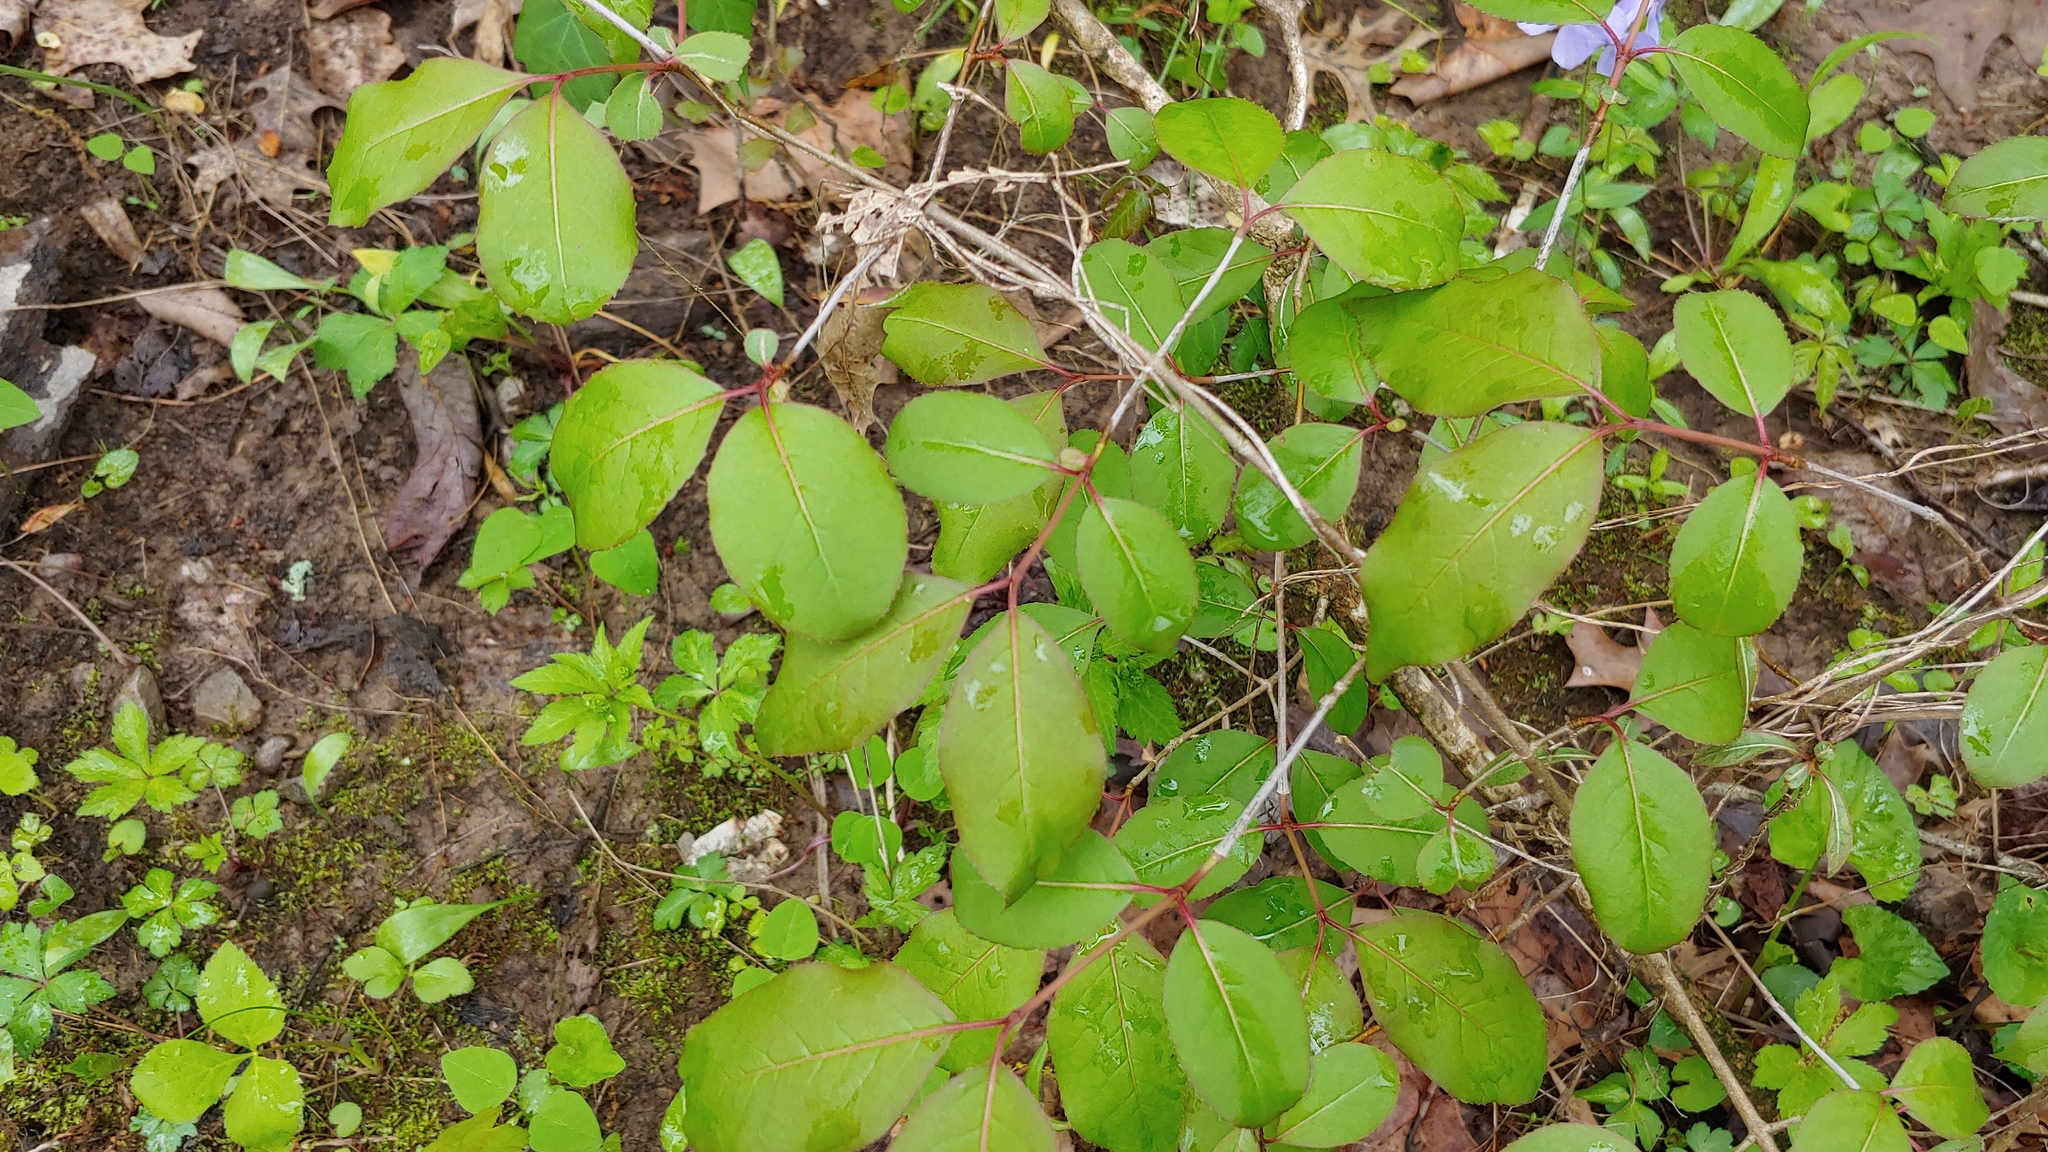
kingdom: Plantae
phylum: Tracheophyta
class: Magnoliopsida
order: Dipsacales
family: Viburnaceae
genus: Viburnum
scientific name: Viburnum prunifolium
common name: Black haw
